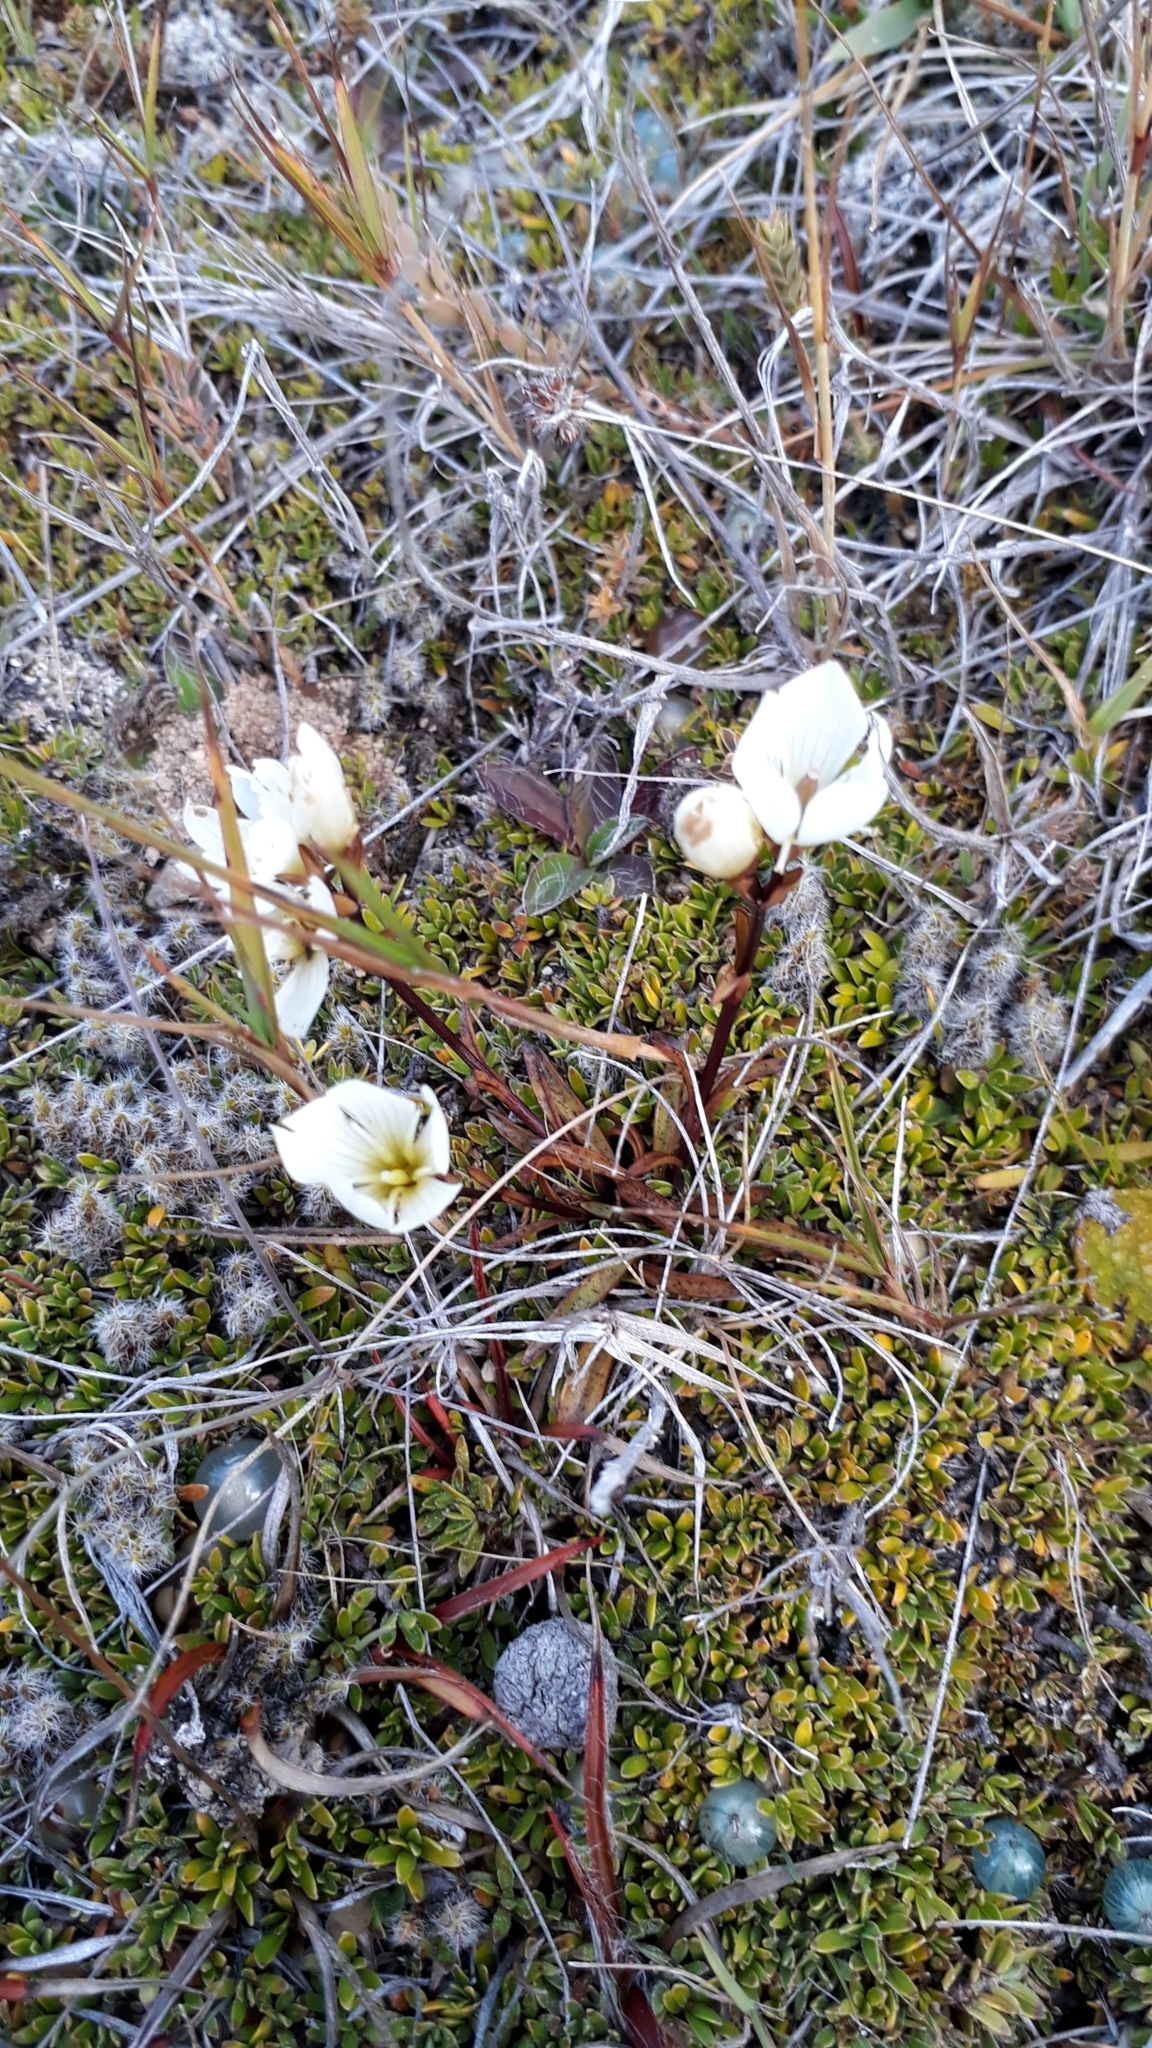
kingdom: Plantae
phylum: Tracheophyta
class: Magnoliopsida
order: Gentianales
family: Gentianaceae
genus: Gentianella
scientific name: Gentianella serotina
